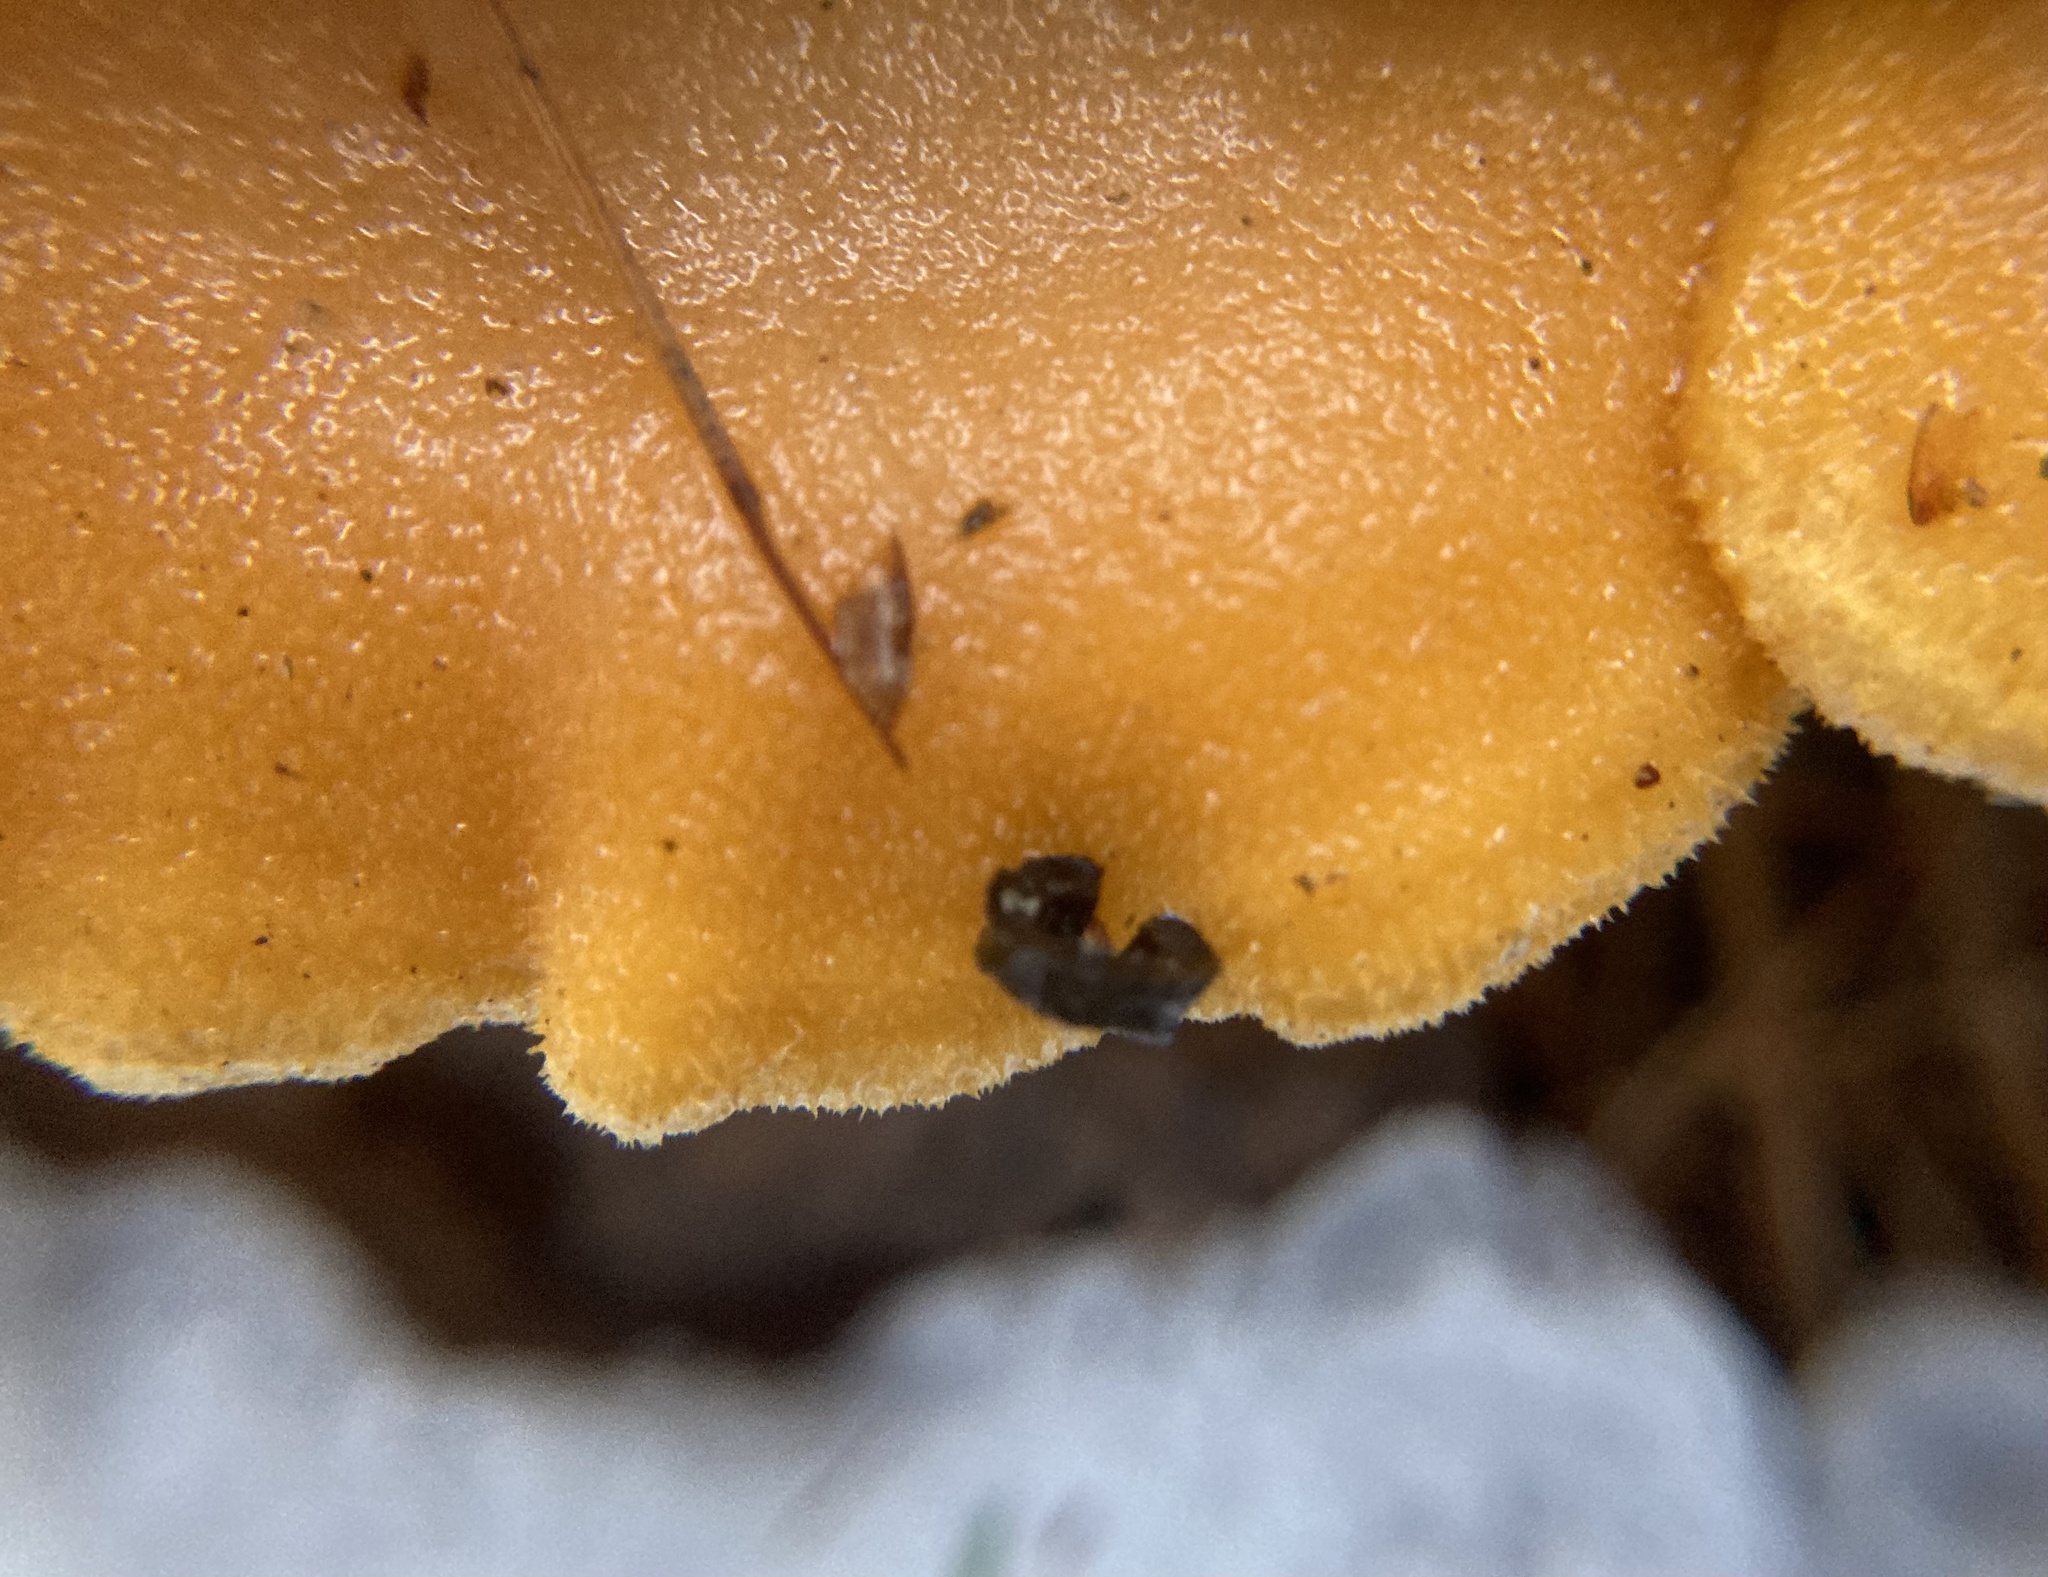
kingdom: Fungi
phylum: Basidiomycota
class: Agaricomycetes
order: Agaricales
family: Phyllotopsidaceae
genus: Phyllotopsis
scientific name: Phyllotopsis nidulans
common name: Orange mock oyster
